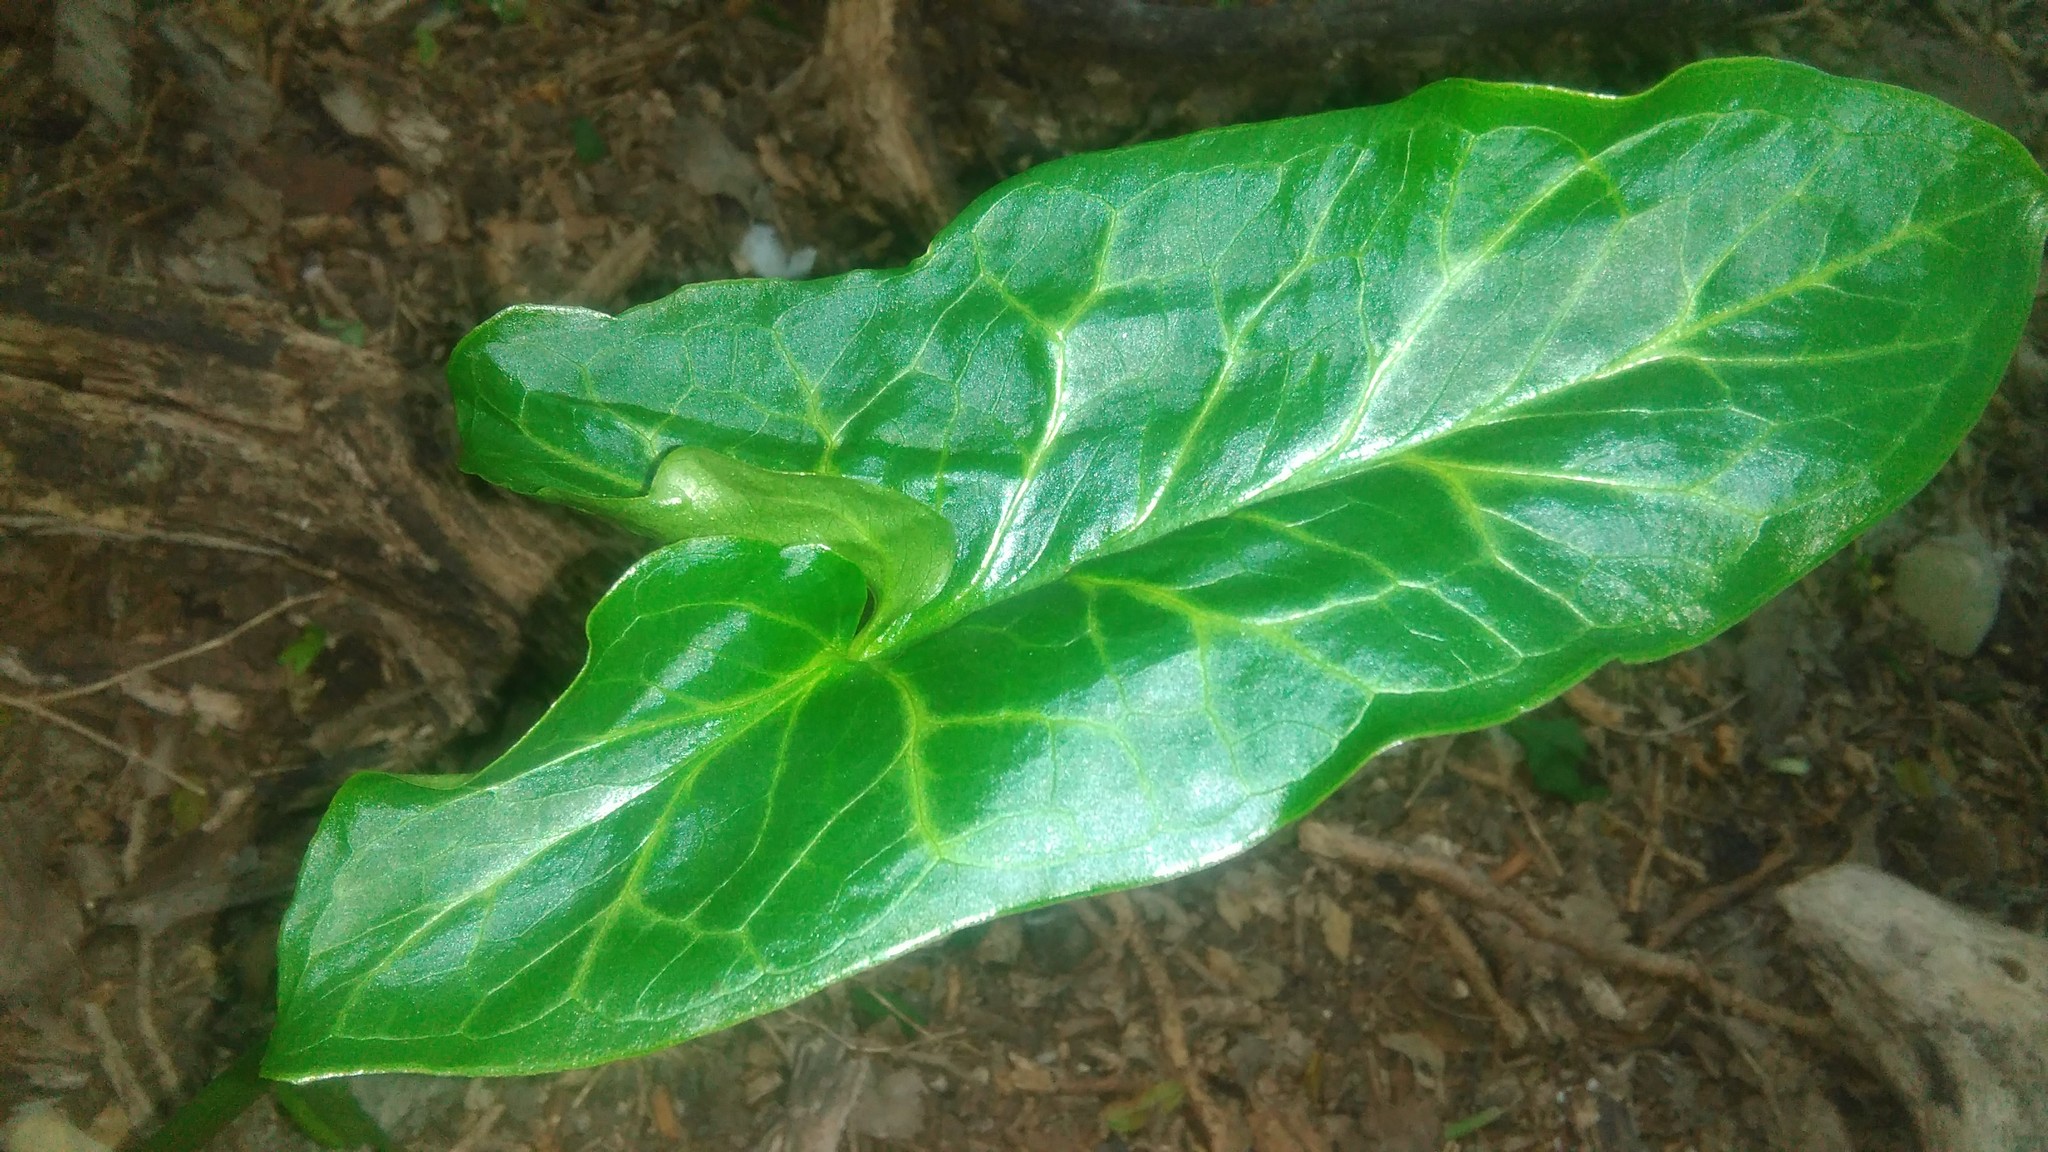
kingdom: Plantae
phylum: Tracheophyta
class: Liliopsida
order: Alismatales
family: Araceae
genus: Arum
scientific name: Arum italicum
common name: Italian lords-and-ladies
